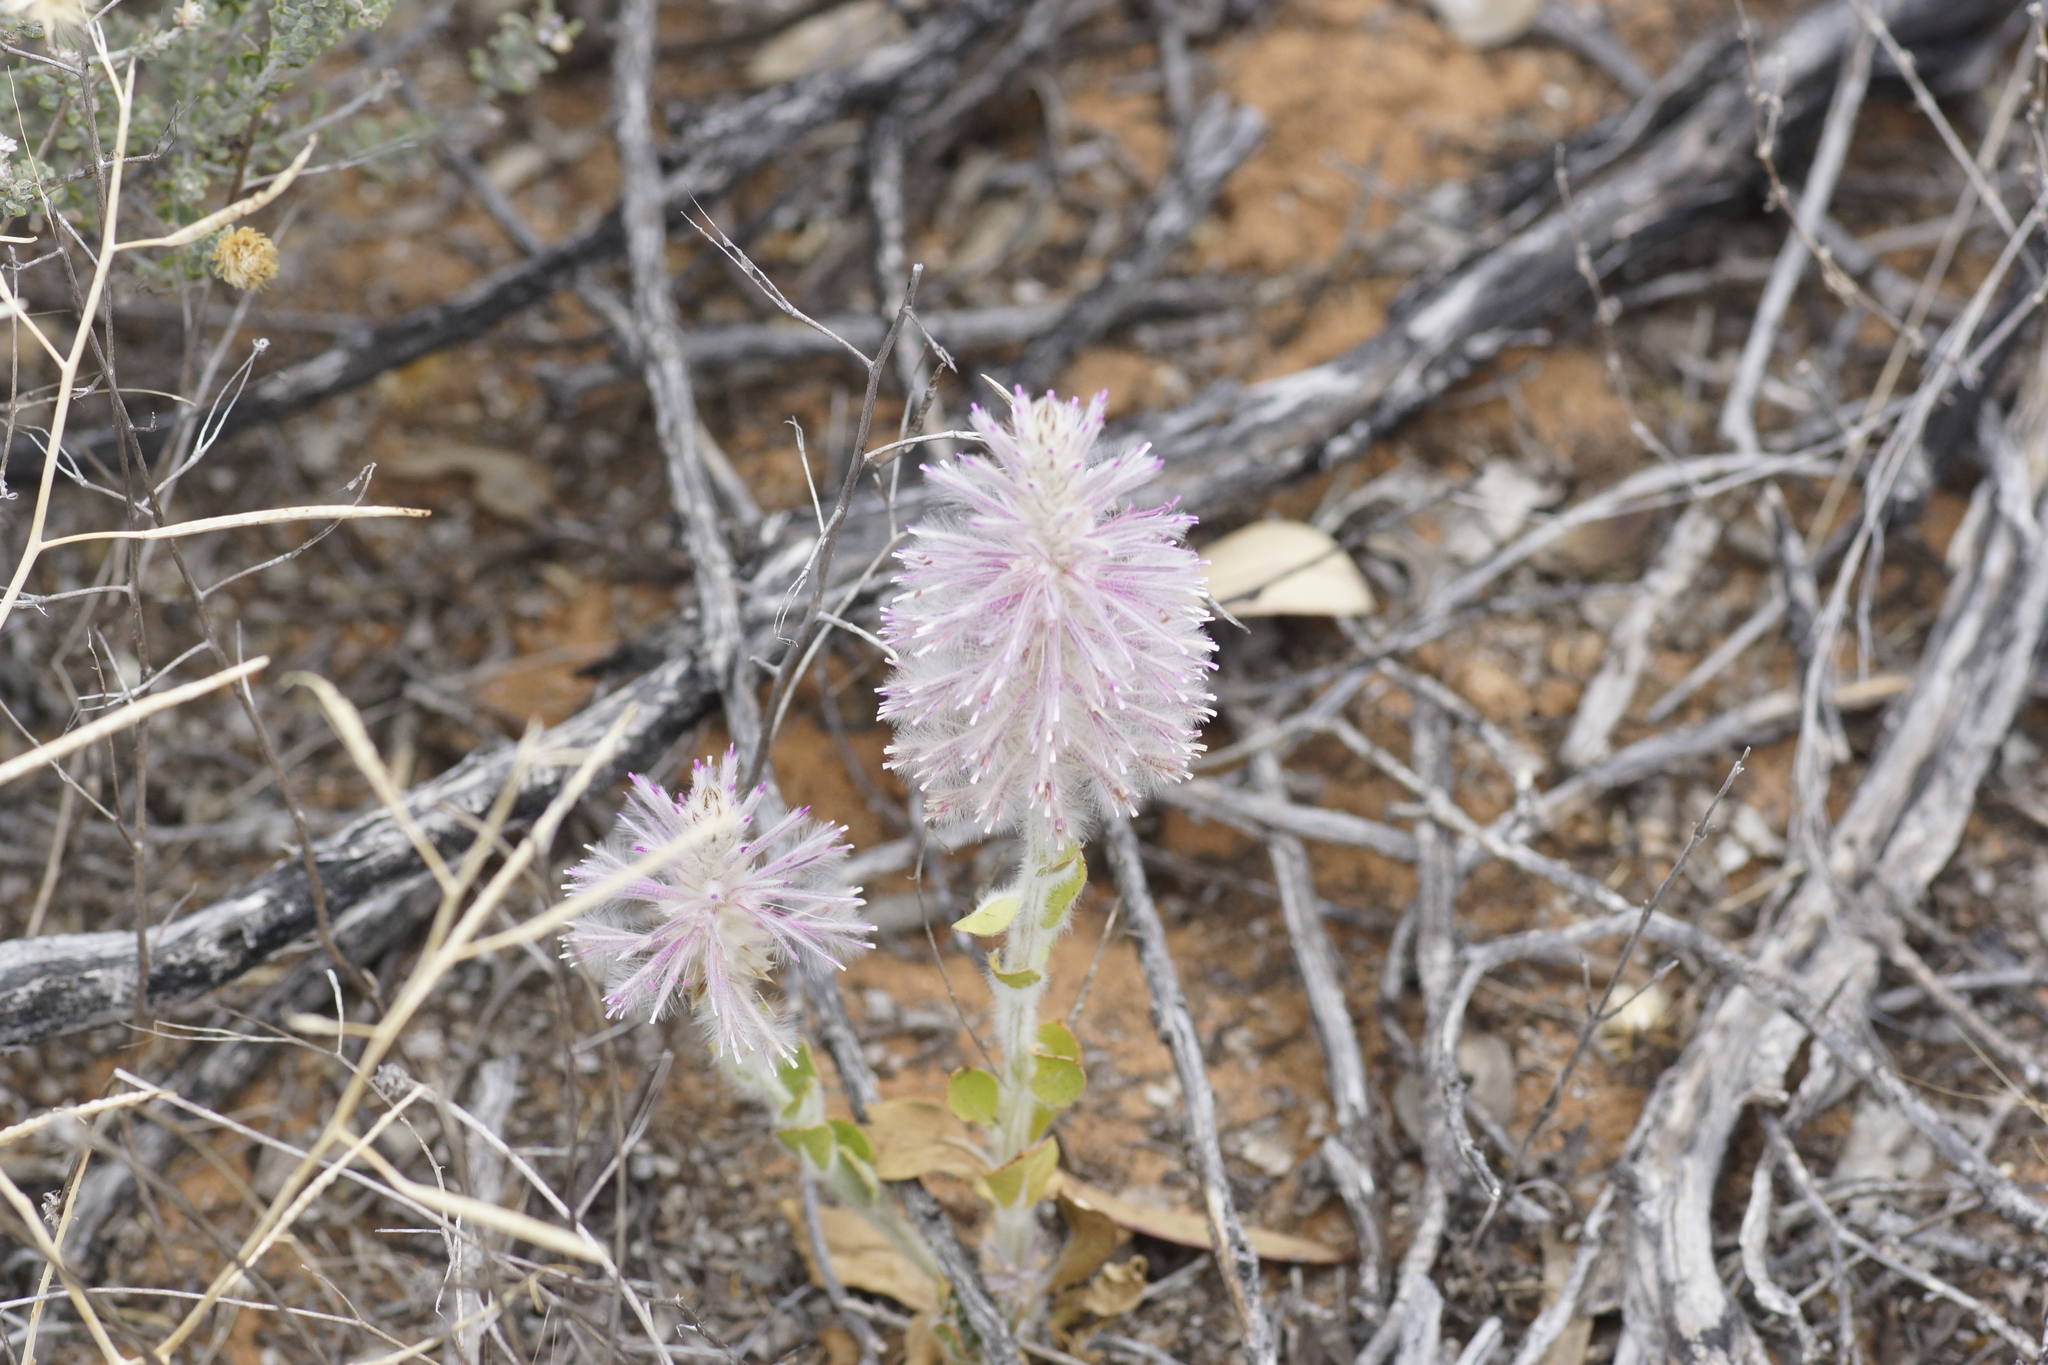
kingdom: Plantae
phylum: Tracheophyta
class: Magnoliopsida
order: Caryophyllales
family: Amaranthaceae
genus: Ptilotus
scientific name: Ptilotus exaltatus
